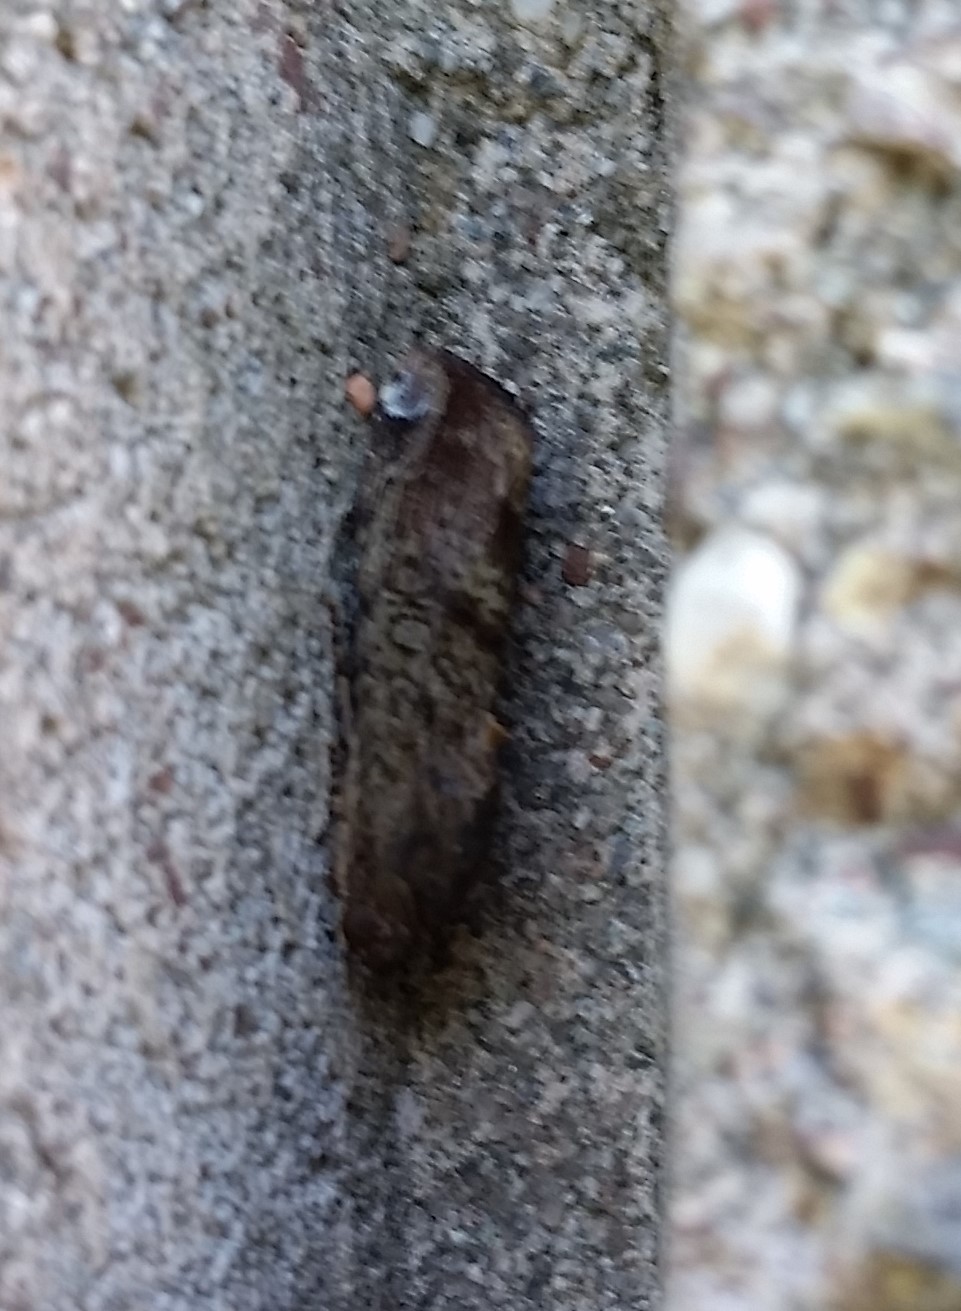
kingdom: Animalia
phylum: Arthropoda
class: Insecta
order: Lepidoptera
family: Noctuidae
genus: Magusa
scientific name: Magusa divaricata
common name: Orb narrow-winged moth
